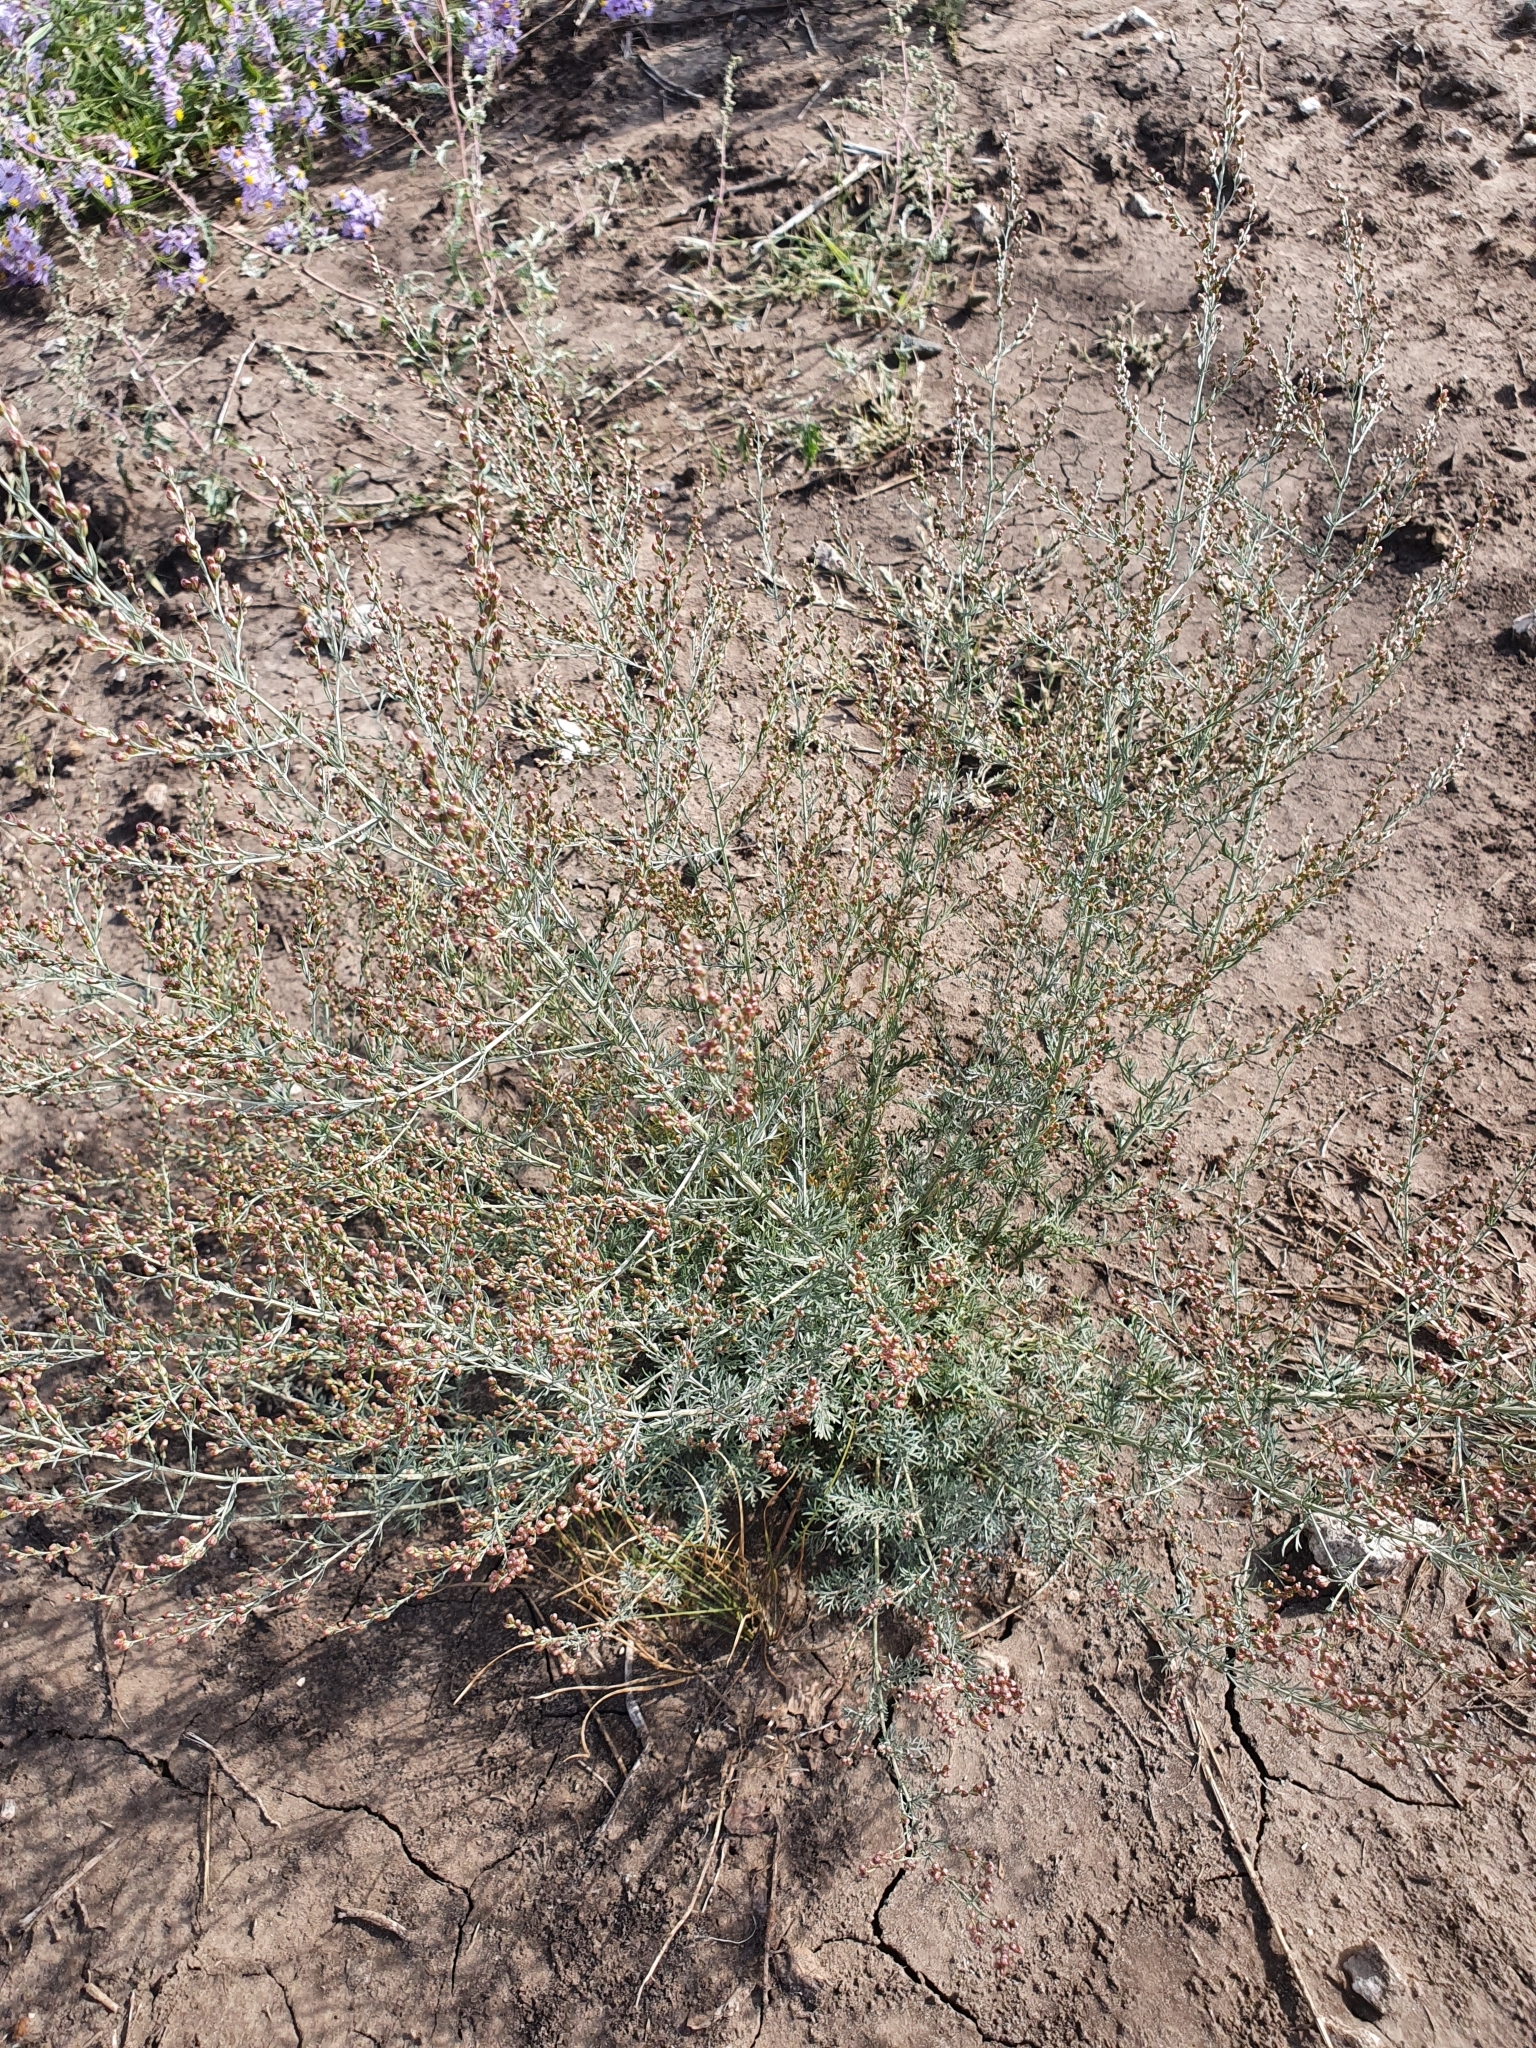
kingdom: Plantae
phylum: Tracheophyta
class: Magnoliopsida
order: Asterales
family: Asteraceae
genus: Artemisia
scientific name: Artemisia nitrosa
